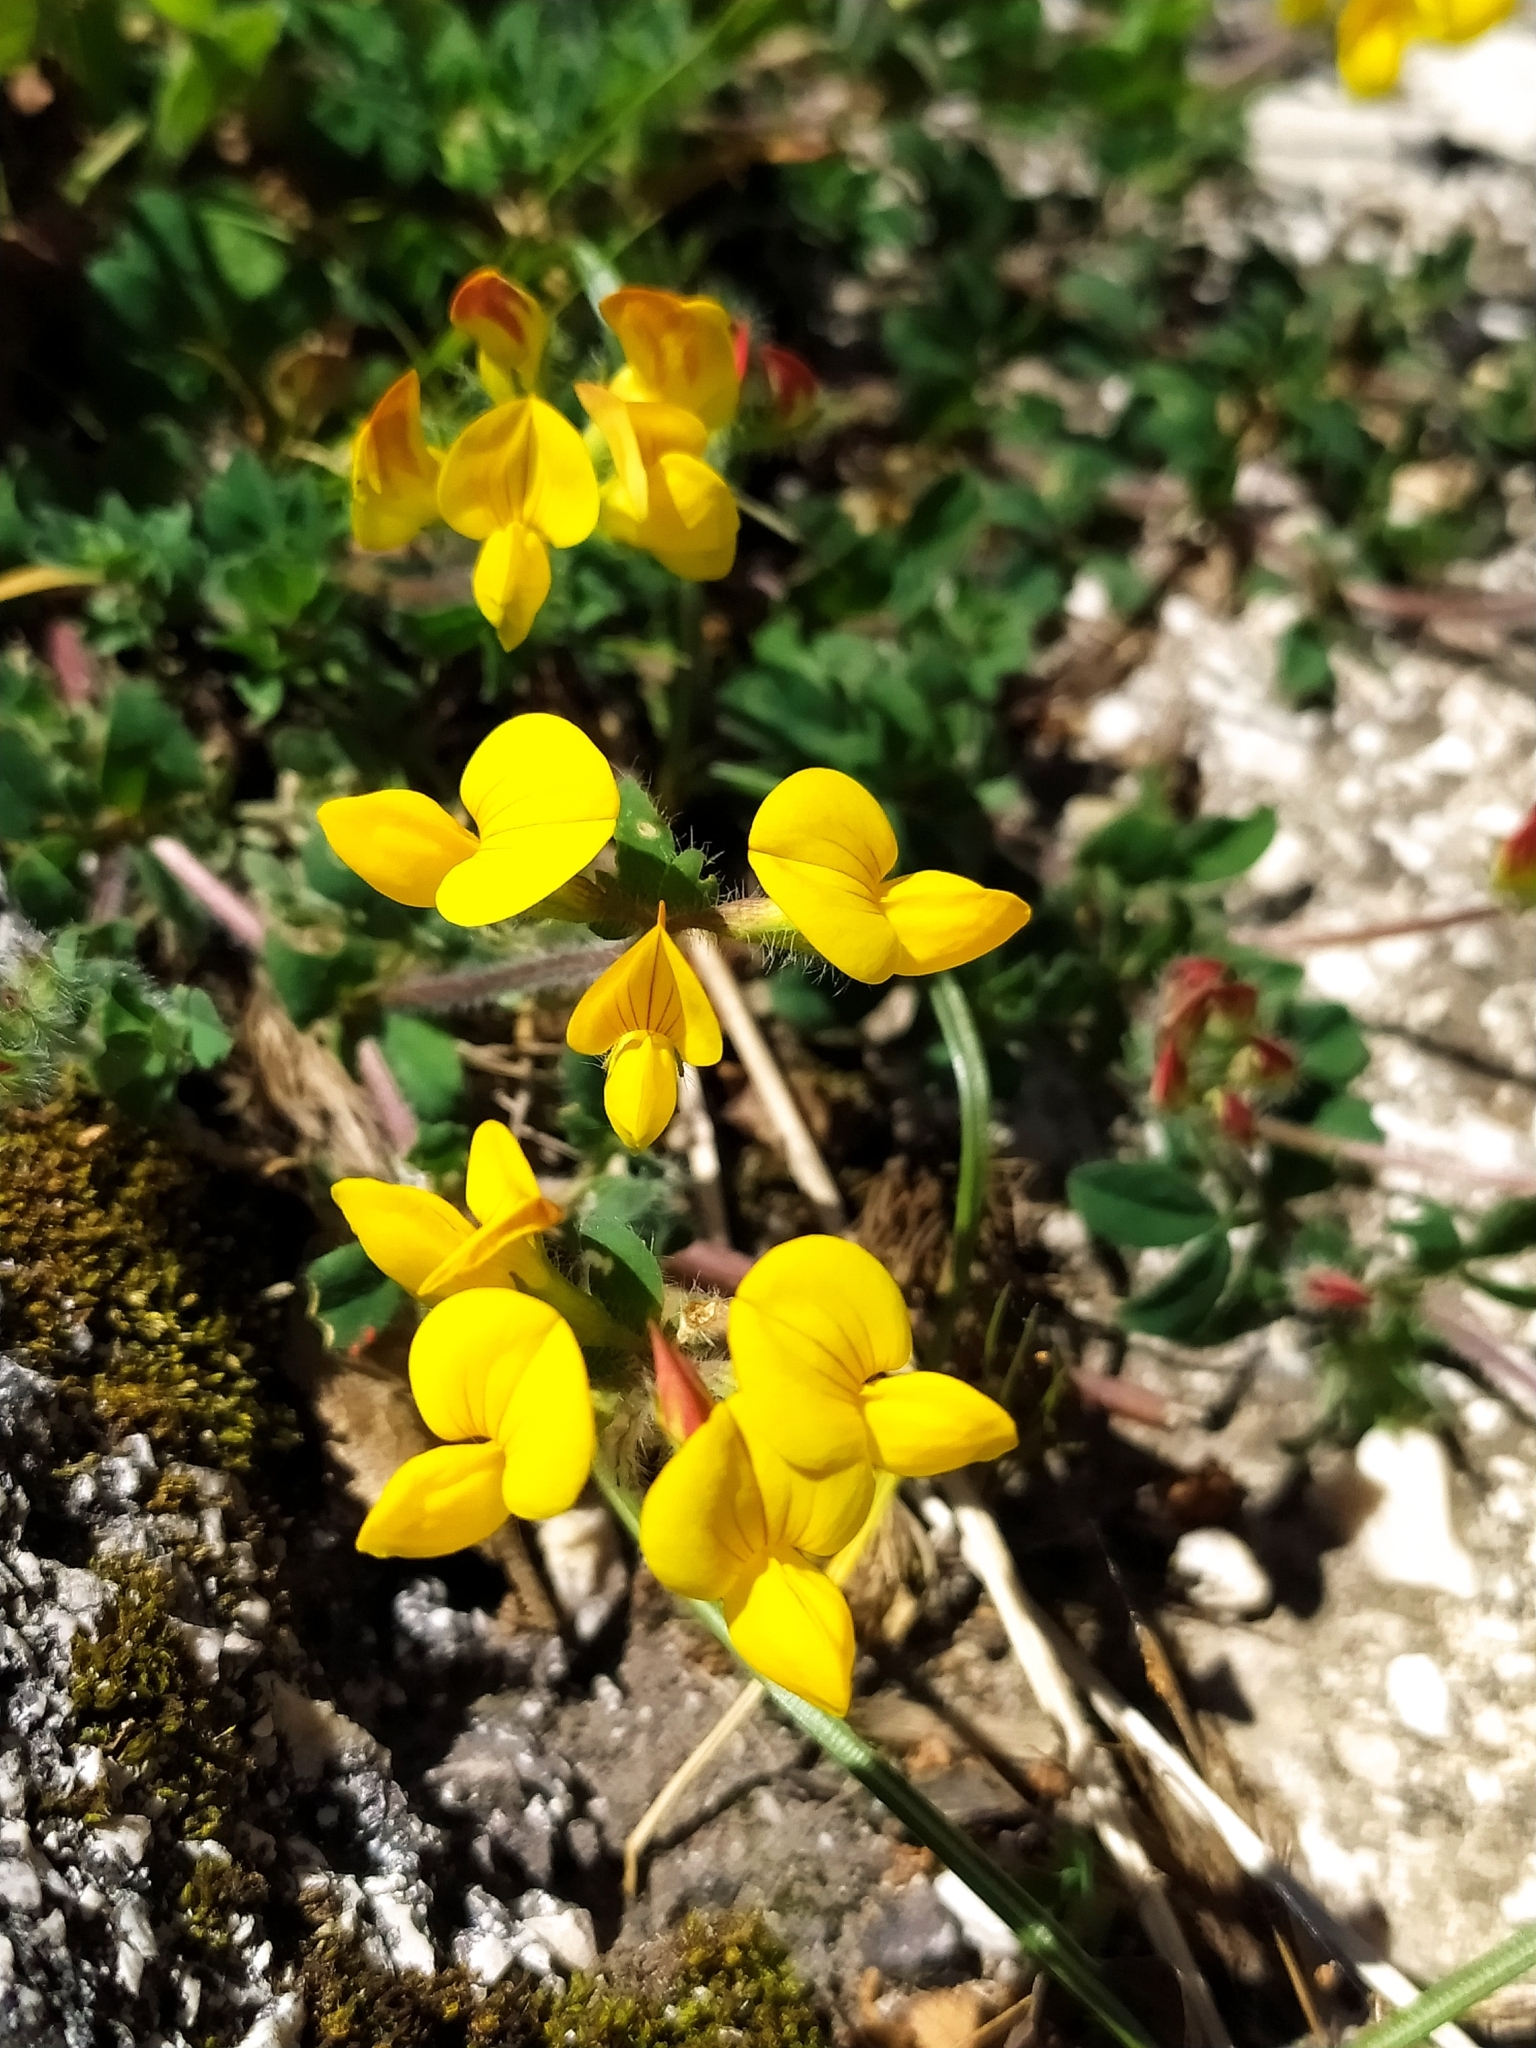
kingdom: Plantae
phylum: Tracheophyta
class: Magnoliopsida
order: Fabales
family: Fabaceae
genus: Lotus
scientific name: Lotus corniculatus
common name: Common bird's-foot-trefoil
